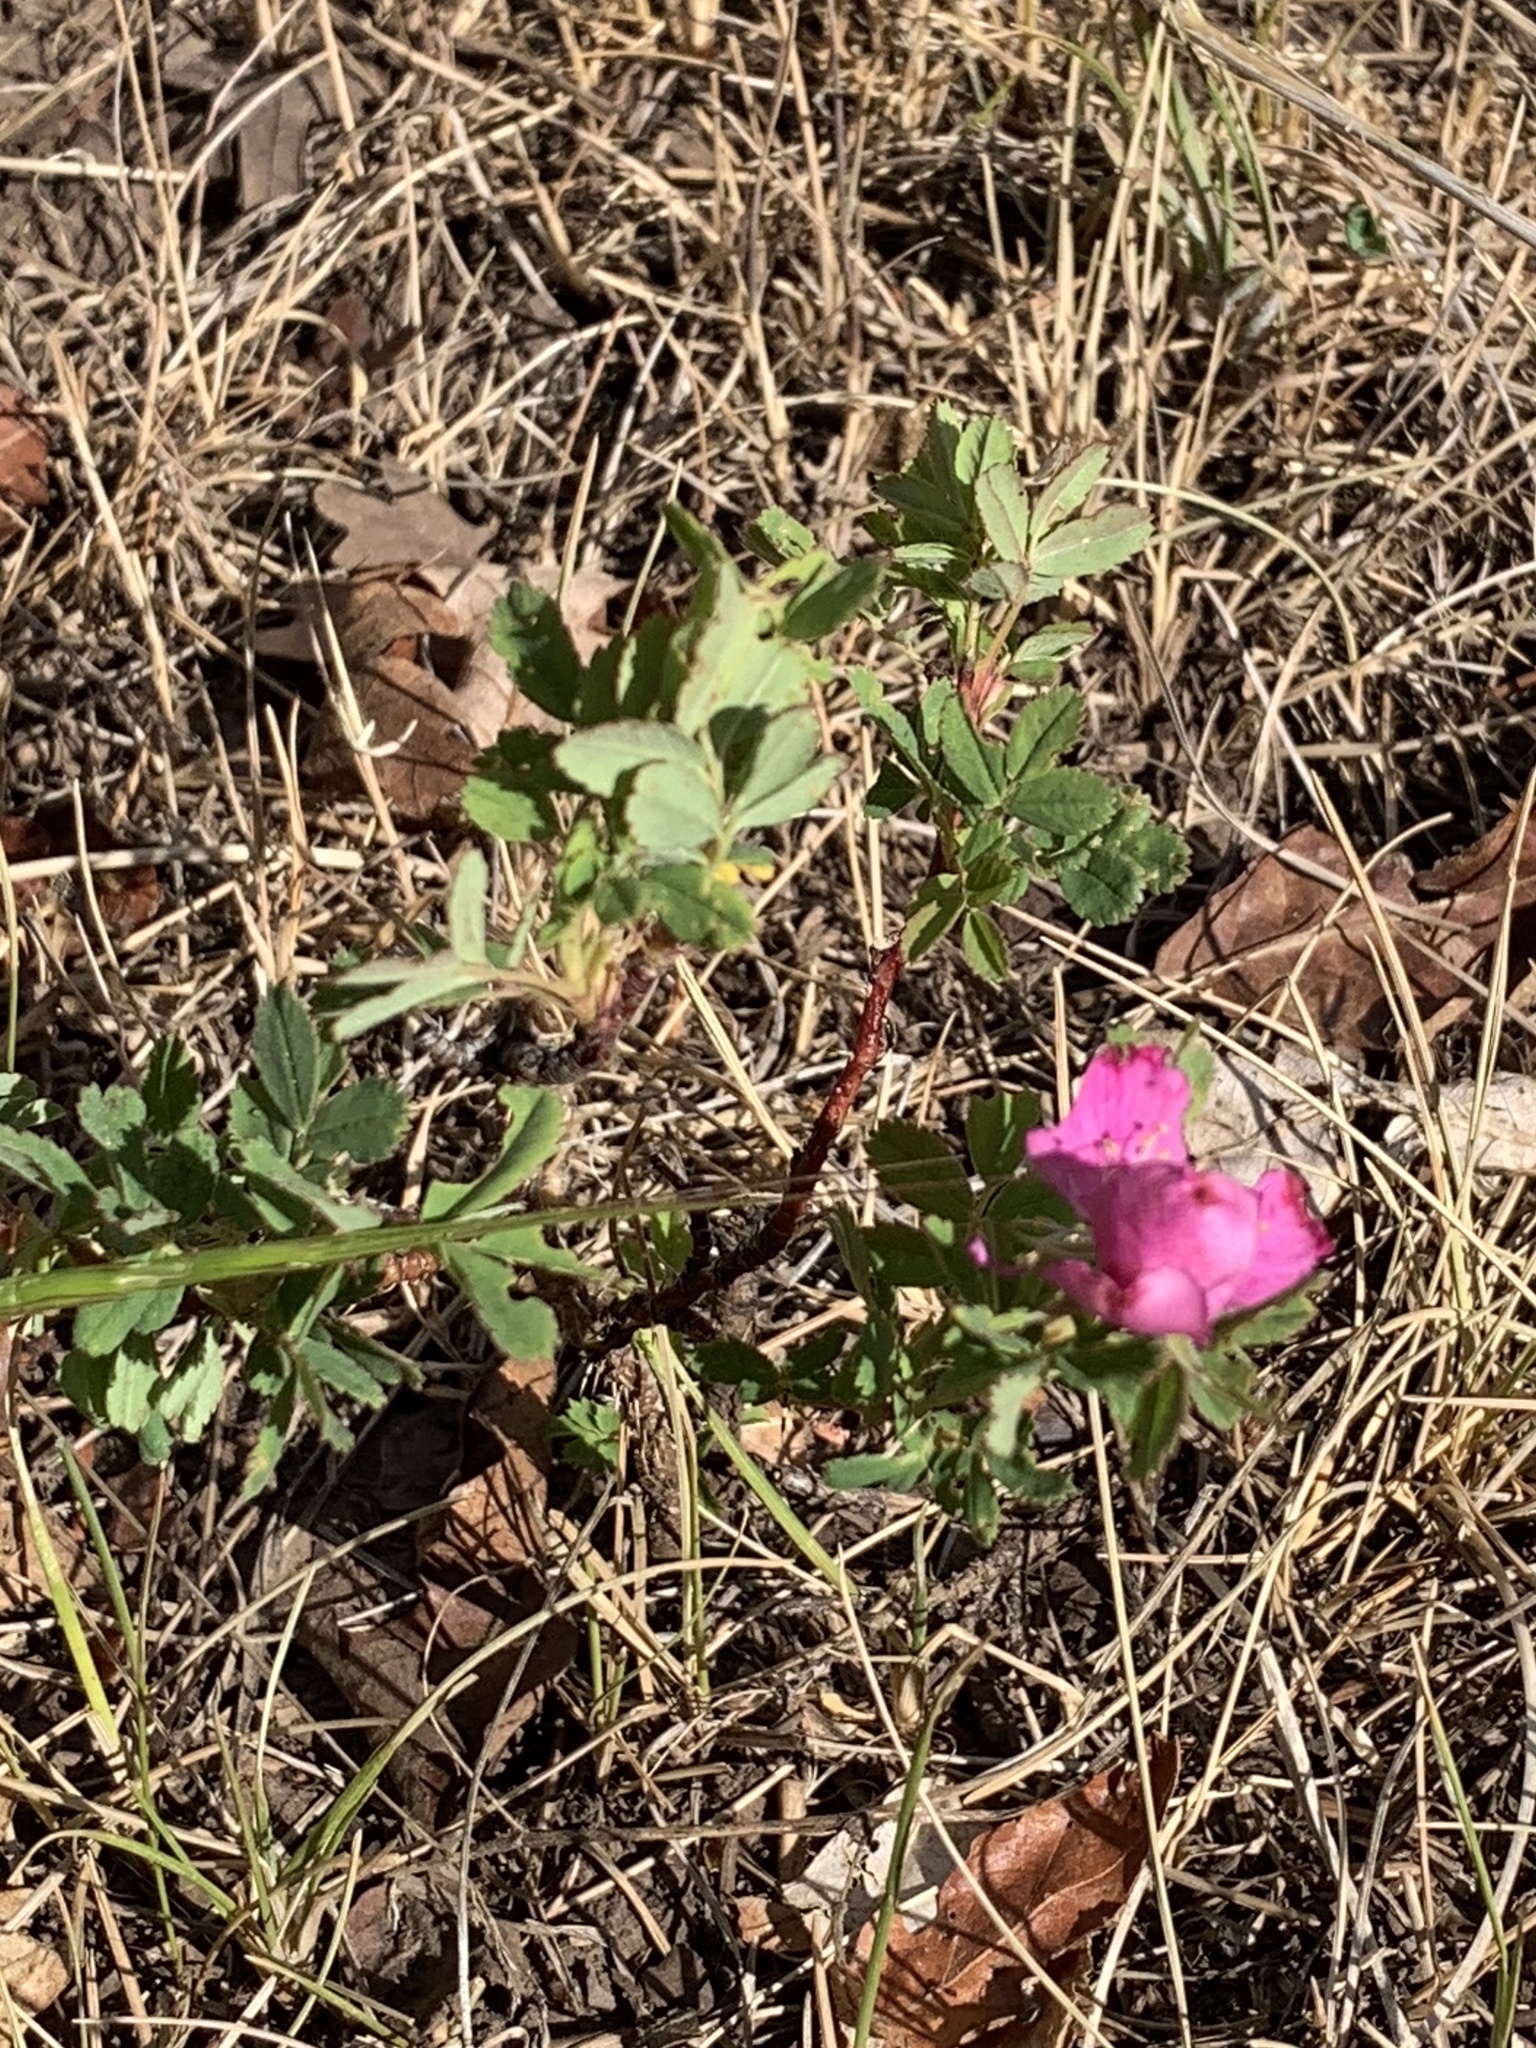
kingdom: Plantae
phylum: Tracheophyta
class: Magnoliopsida
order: Rosales
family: Rosaceae
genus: Rosa
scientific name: Rosa woodsii
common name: Woods's rose
